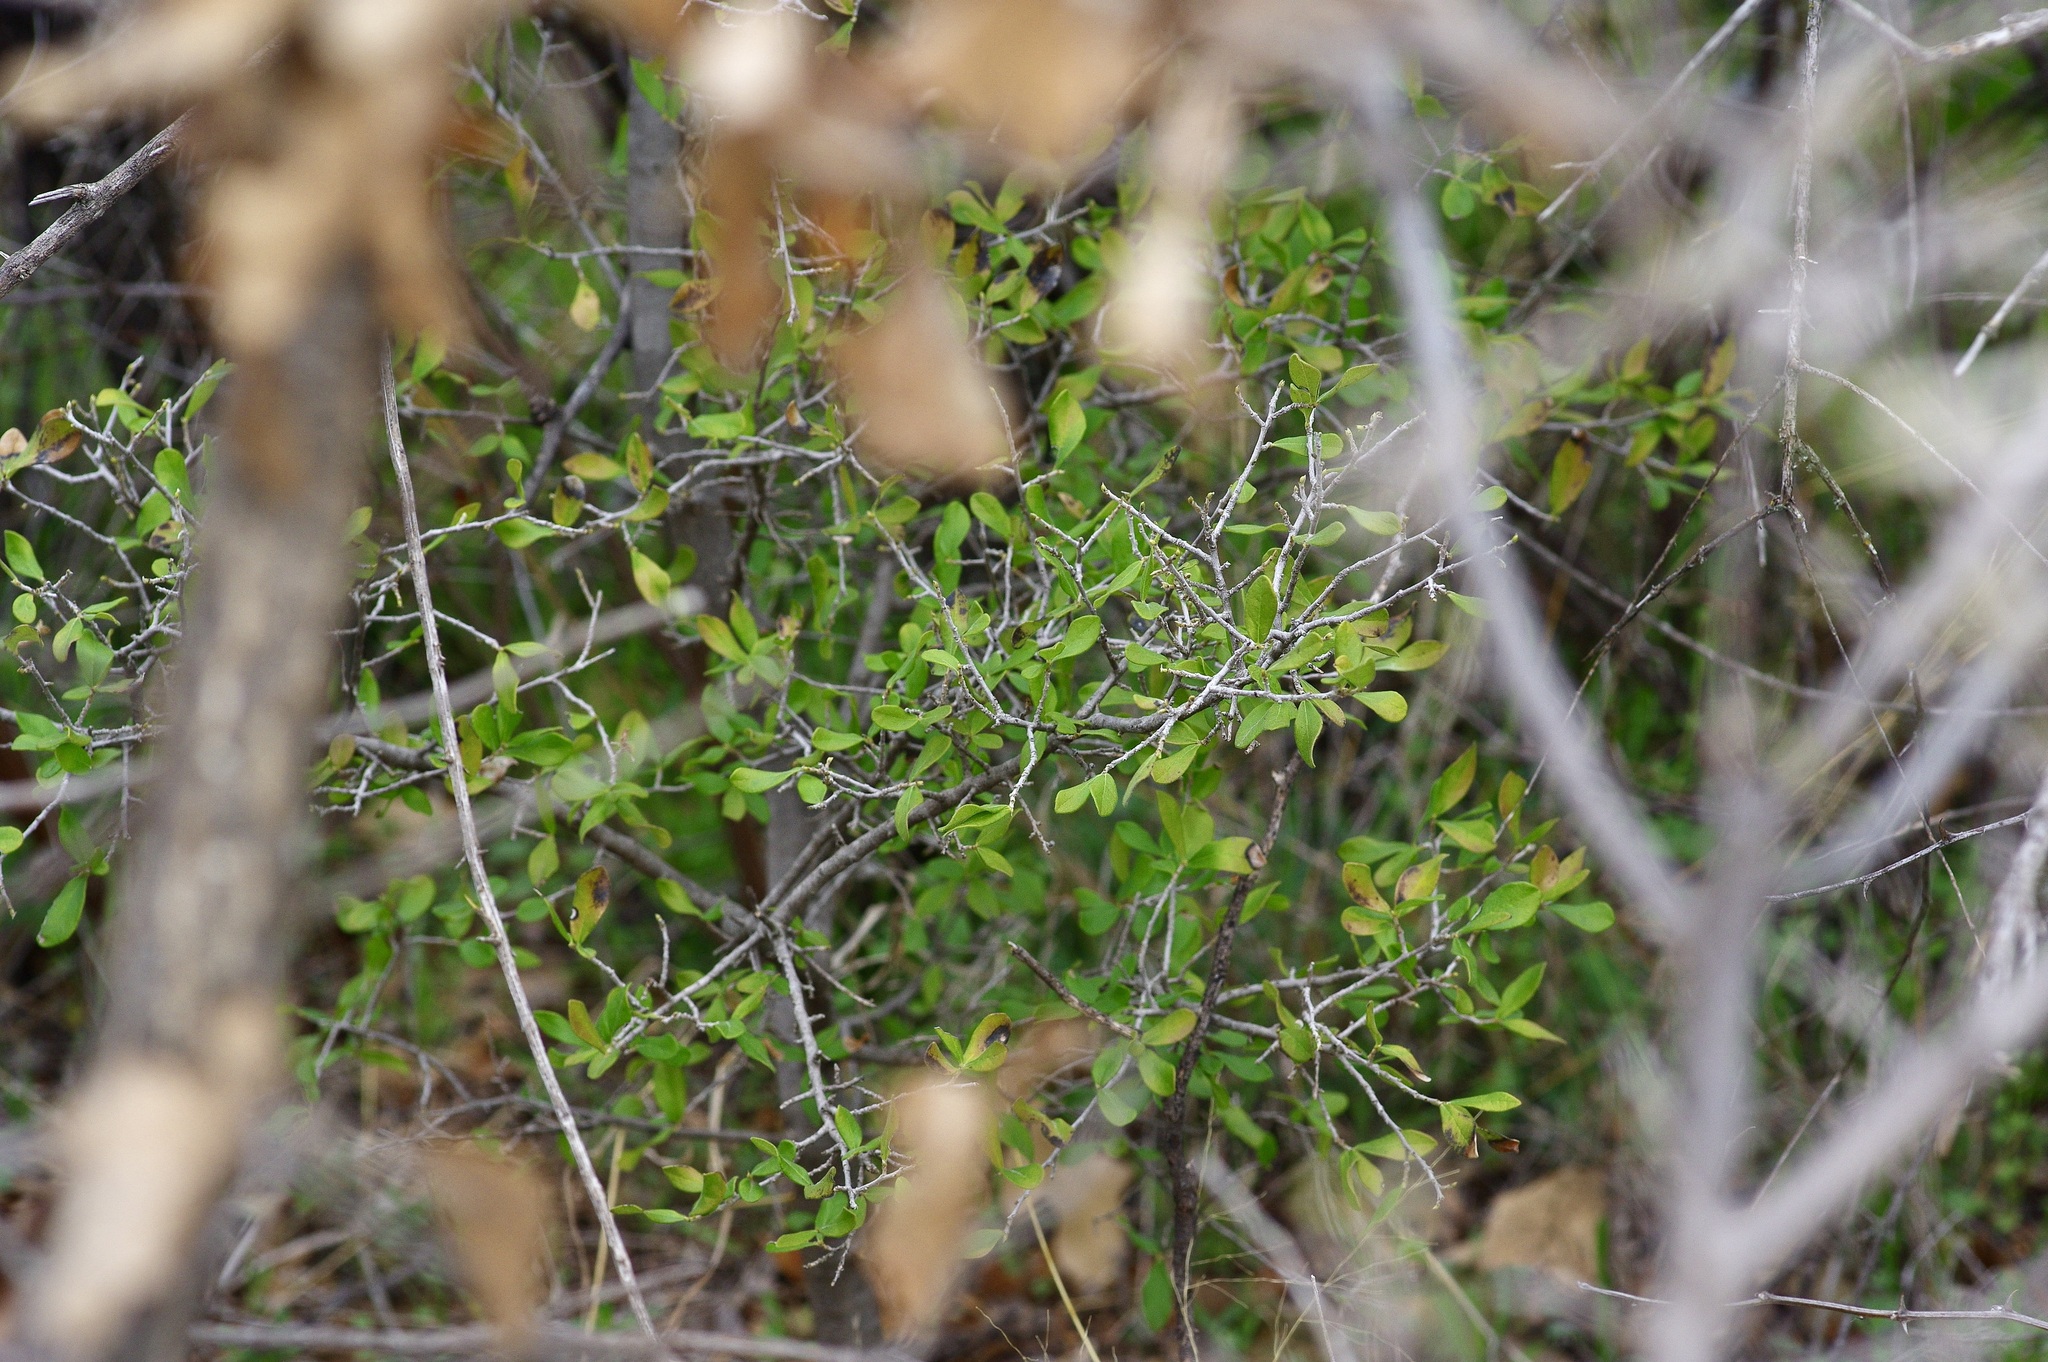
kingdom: Plantae
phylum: Tracheophyta
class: Magnoliopsida
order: Ericales
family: Ebenaceae
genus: Diospyros
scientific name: Diospyros texana
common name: Texas persimmon
